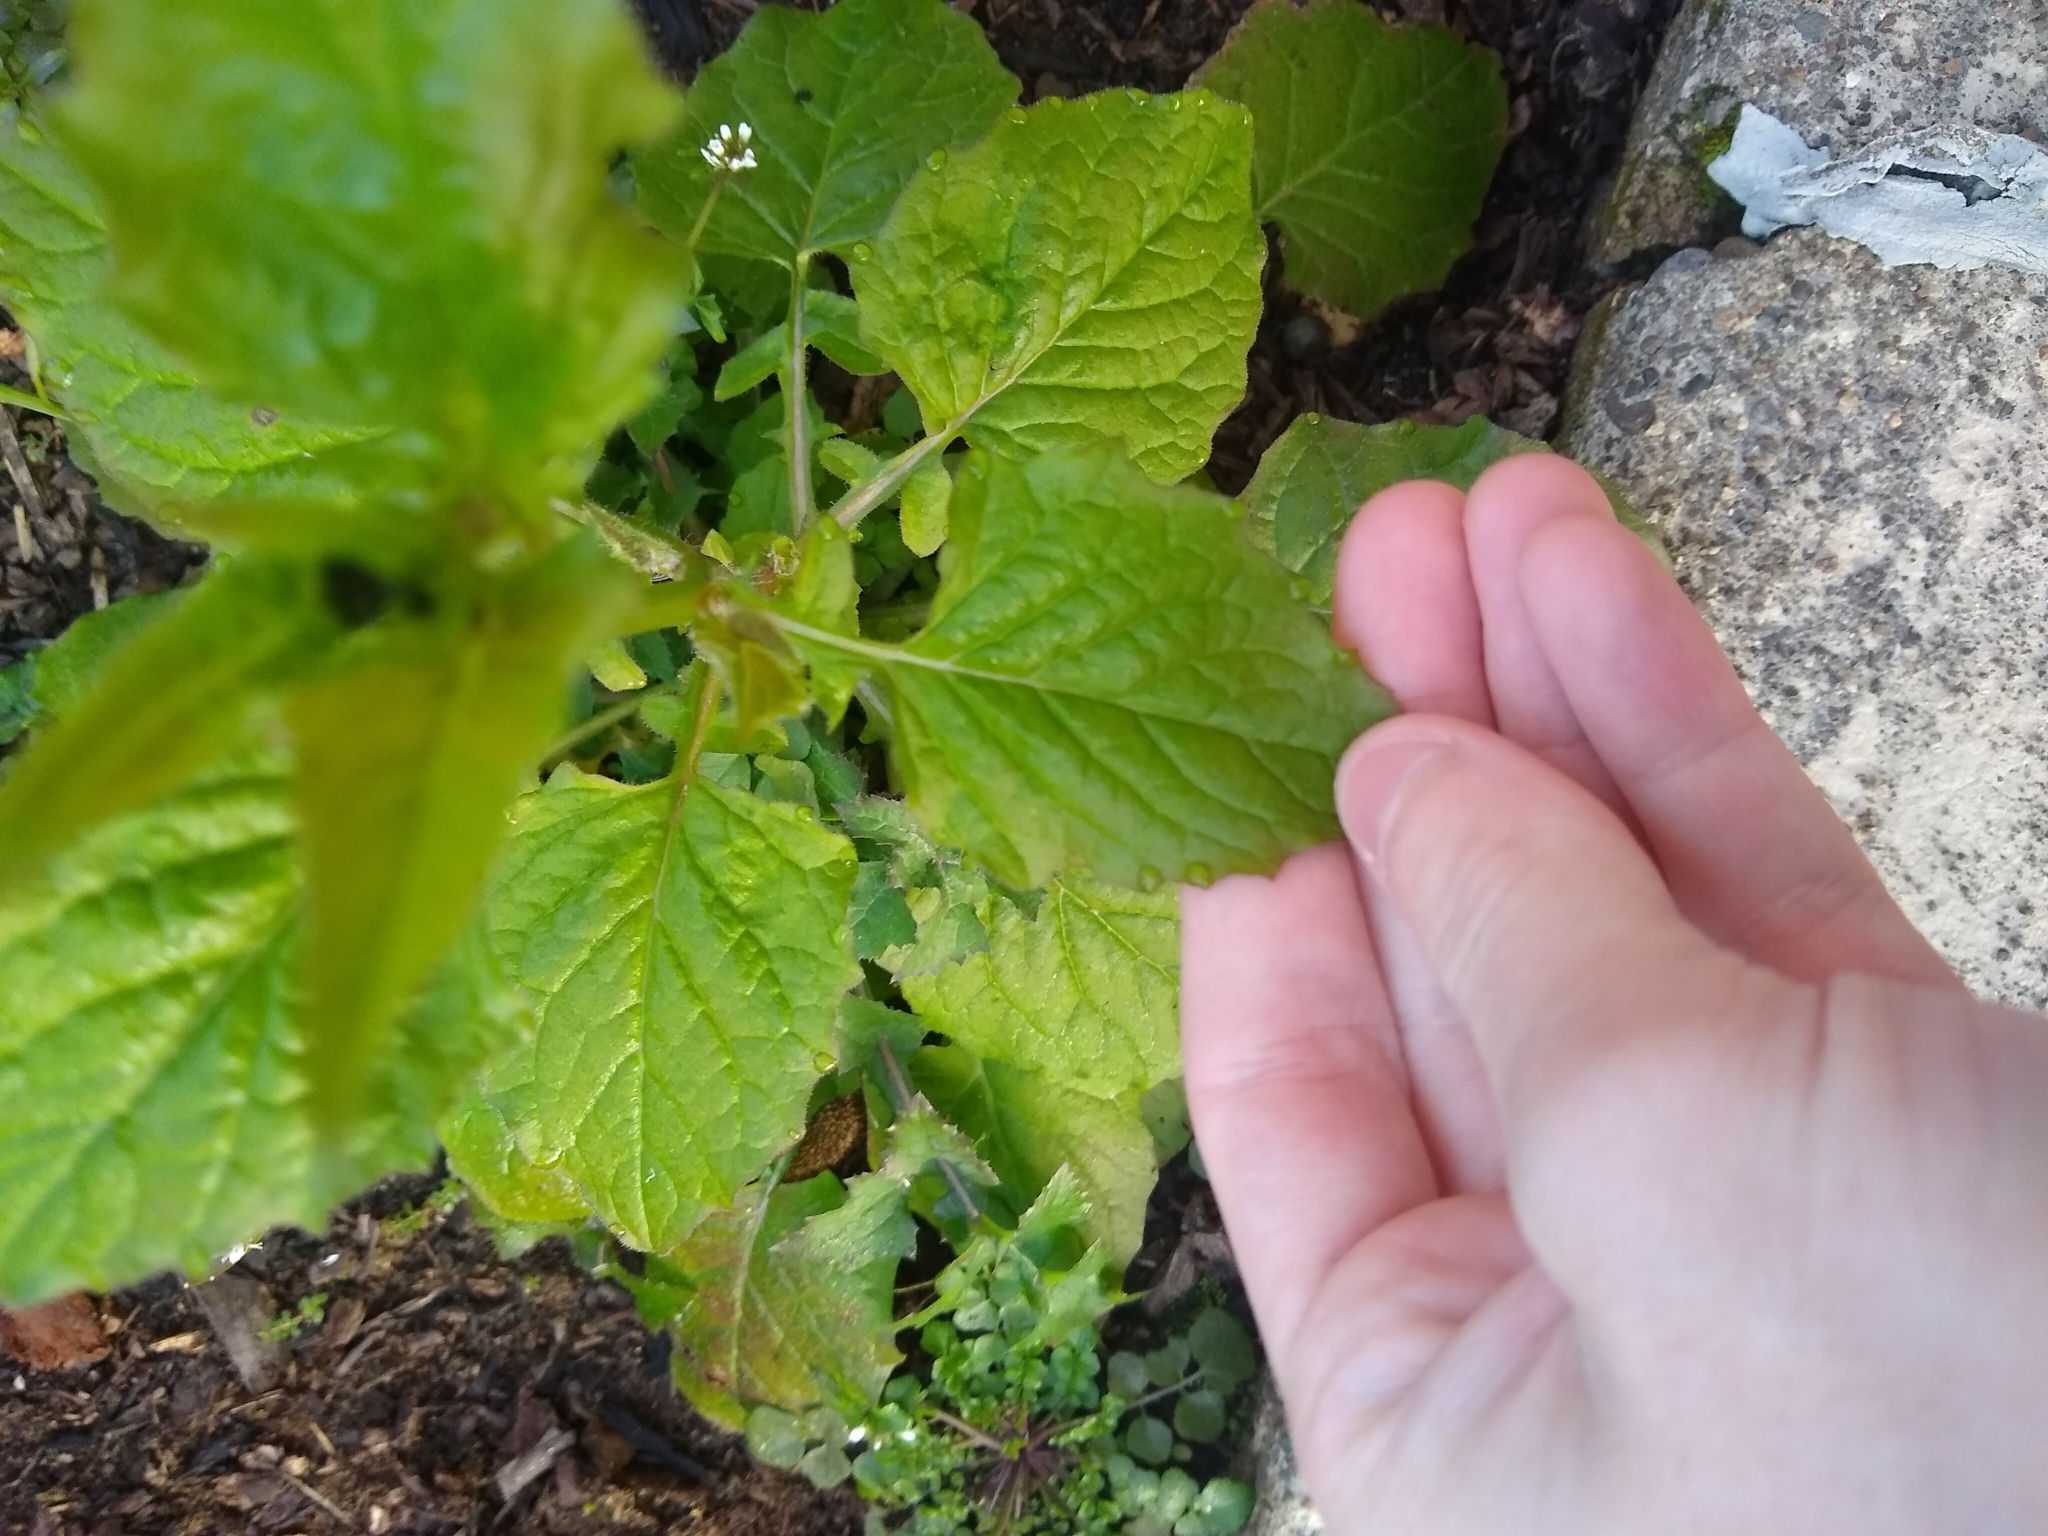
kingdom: Plantae
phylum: Tracheophyta
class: Magnoliopsida
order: Asterales
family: Asteraceae
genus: Lapsana
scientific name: Lapsana communis
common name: Nipplewort
